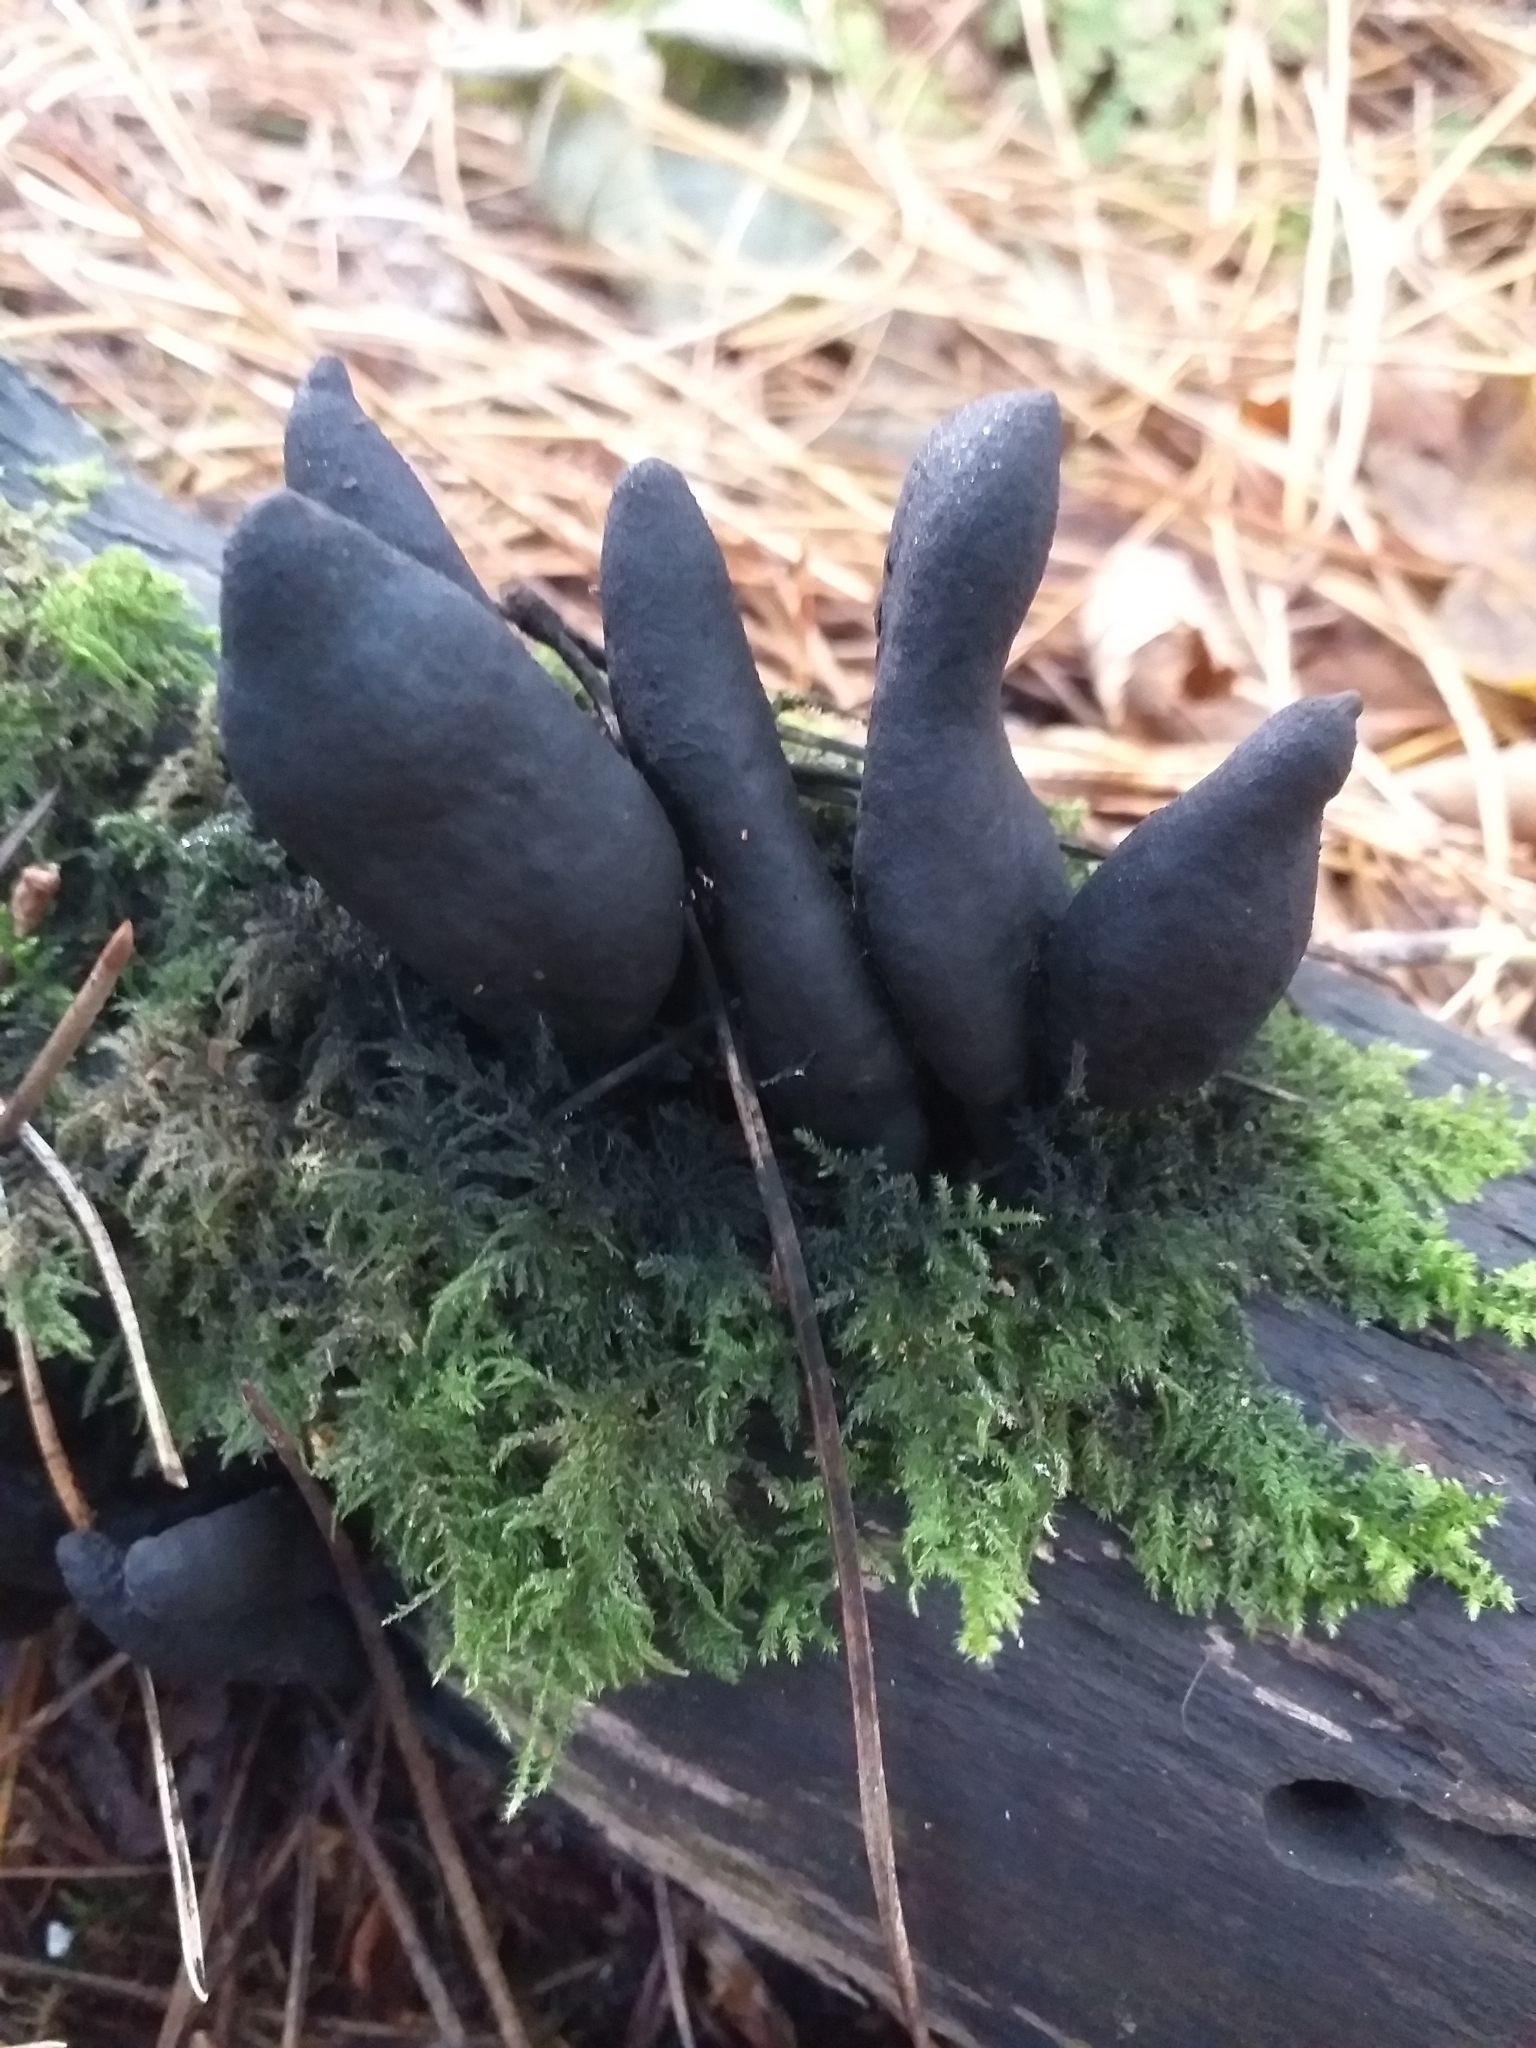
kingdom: Fungi
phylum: Ascomycota
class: Sordariomycetes
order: Xylariales
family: Xylariaceae
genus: Xylaria
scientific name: Xylaria polymorpha
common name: Dead man's fingers
